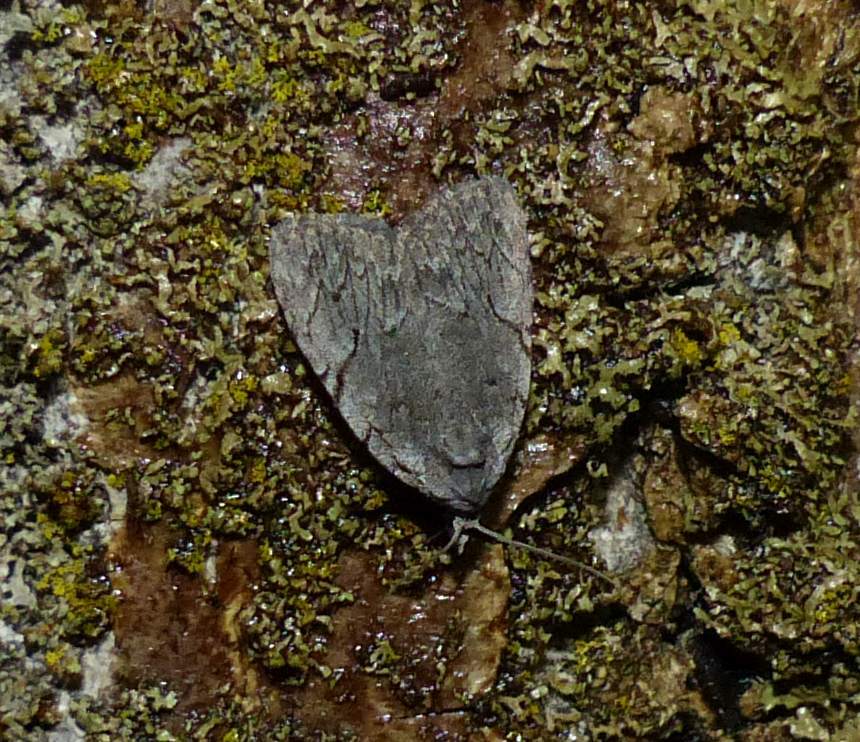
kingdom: Animalia
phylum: Arthropoda
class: Insecta
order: Lepidoptera
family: Noctuidae
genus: Balsa
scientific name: Balsa malana
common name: Many-dotted appleworm moth
